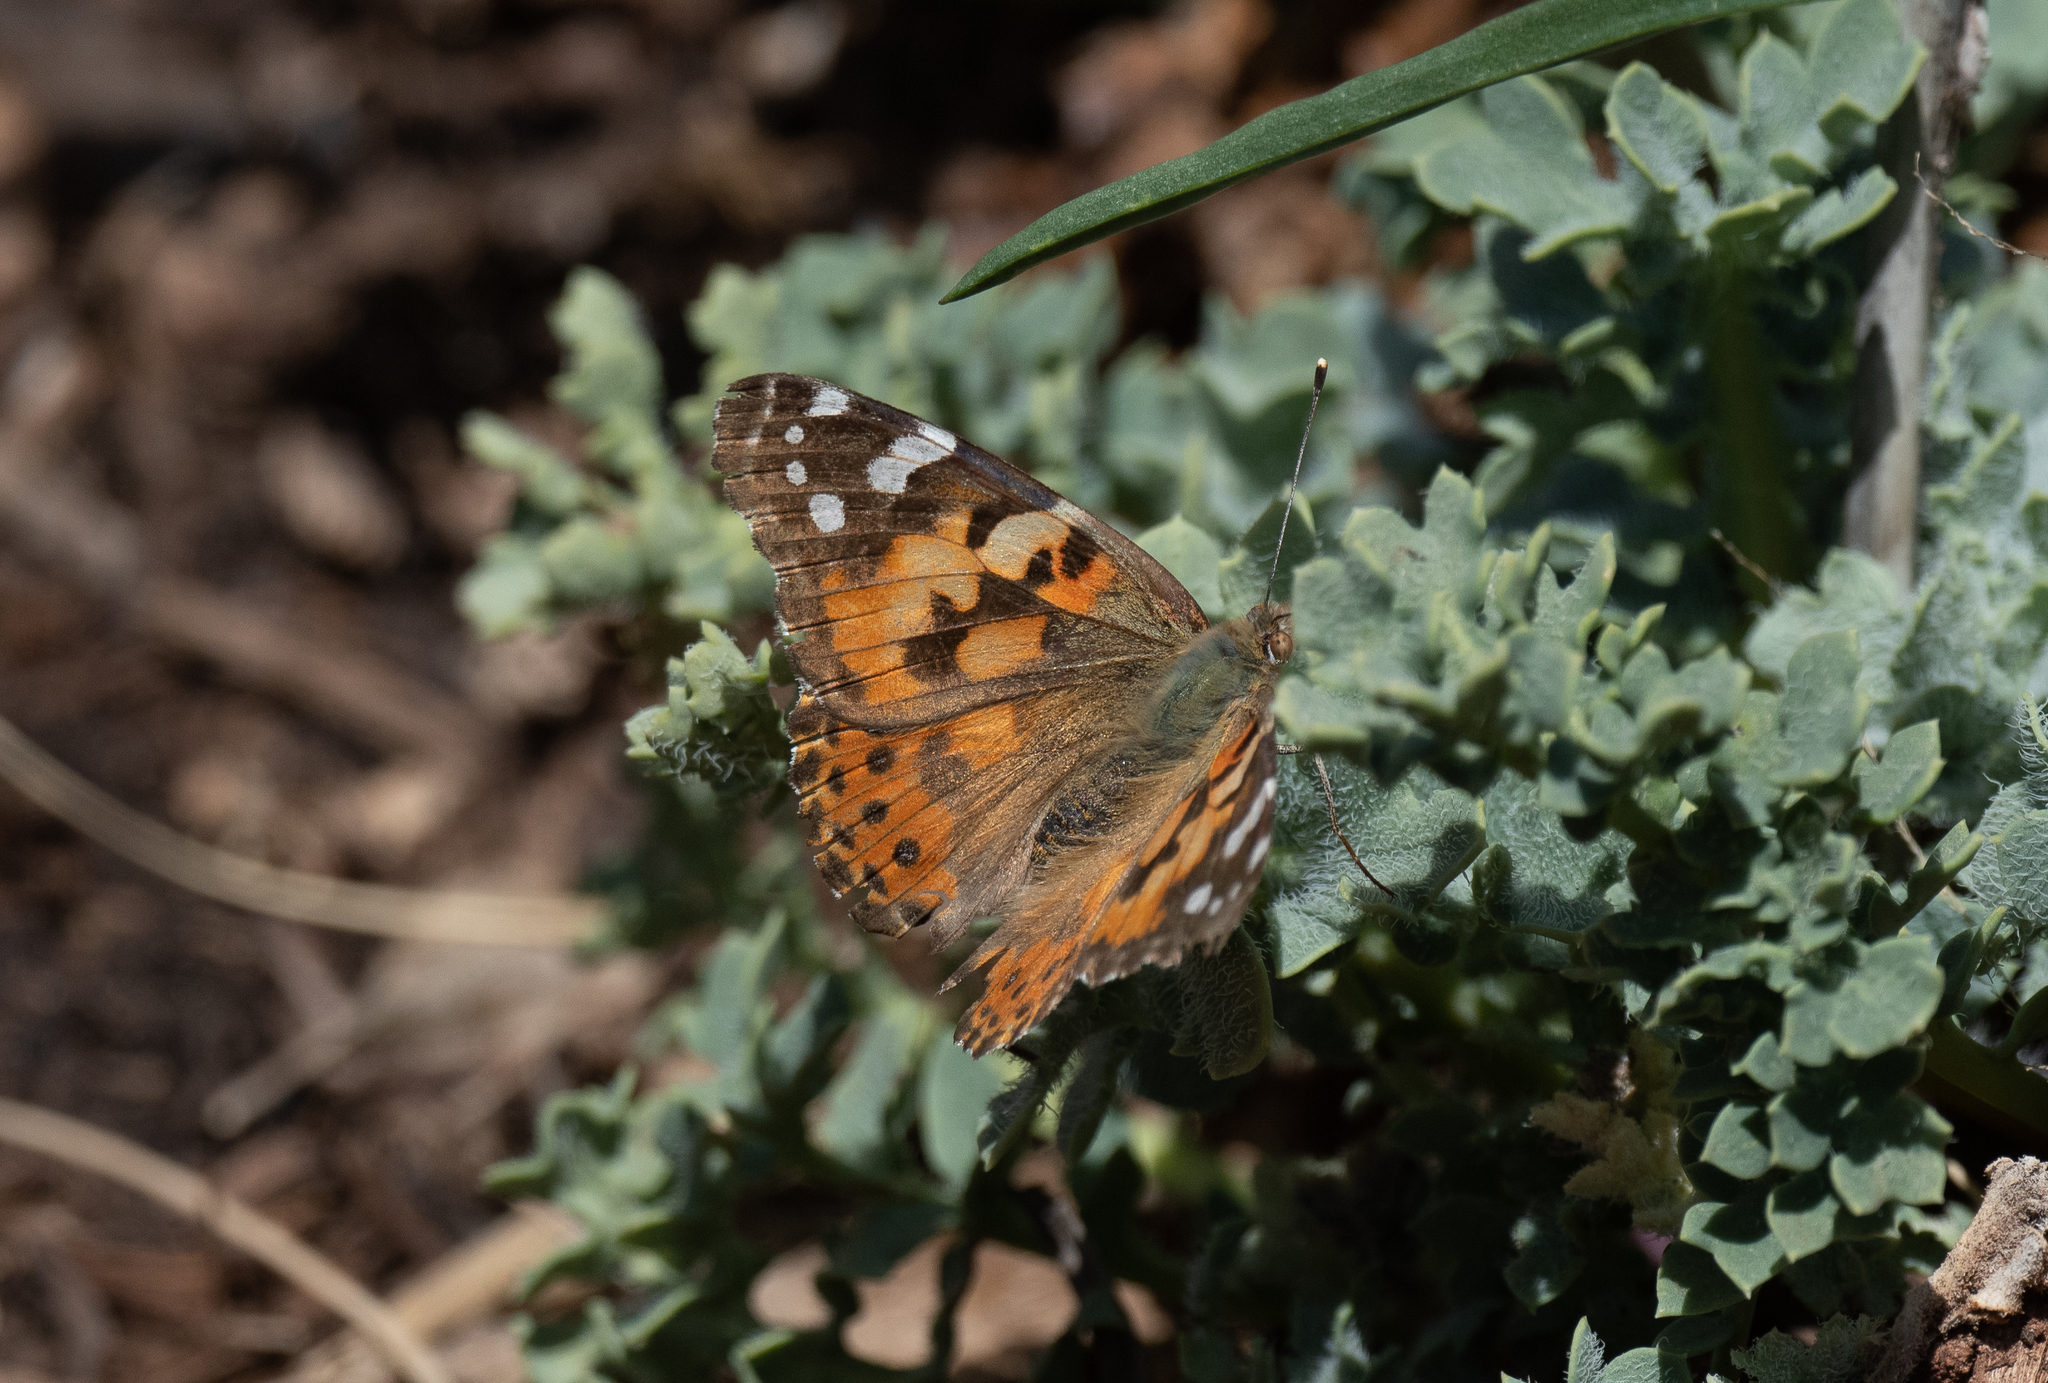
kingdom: Animalia
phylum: Arthropoda
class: Insecta
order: Lepidoptera
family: Nymphalidae
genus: Vanessa
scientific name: Vanessa cardui
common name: Painted lady
